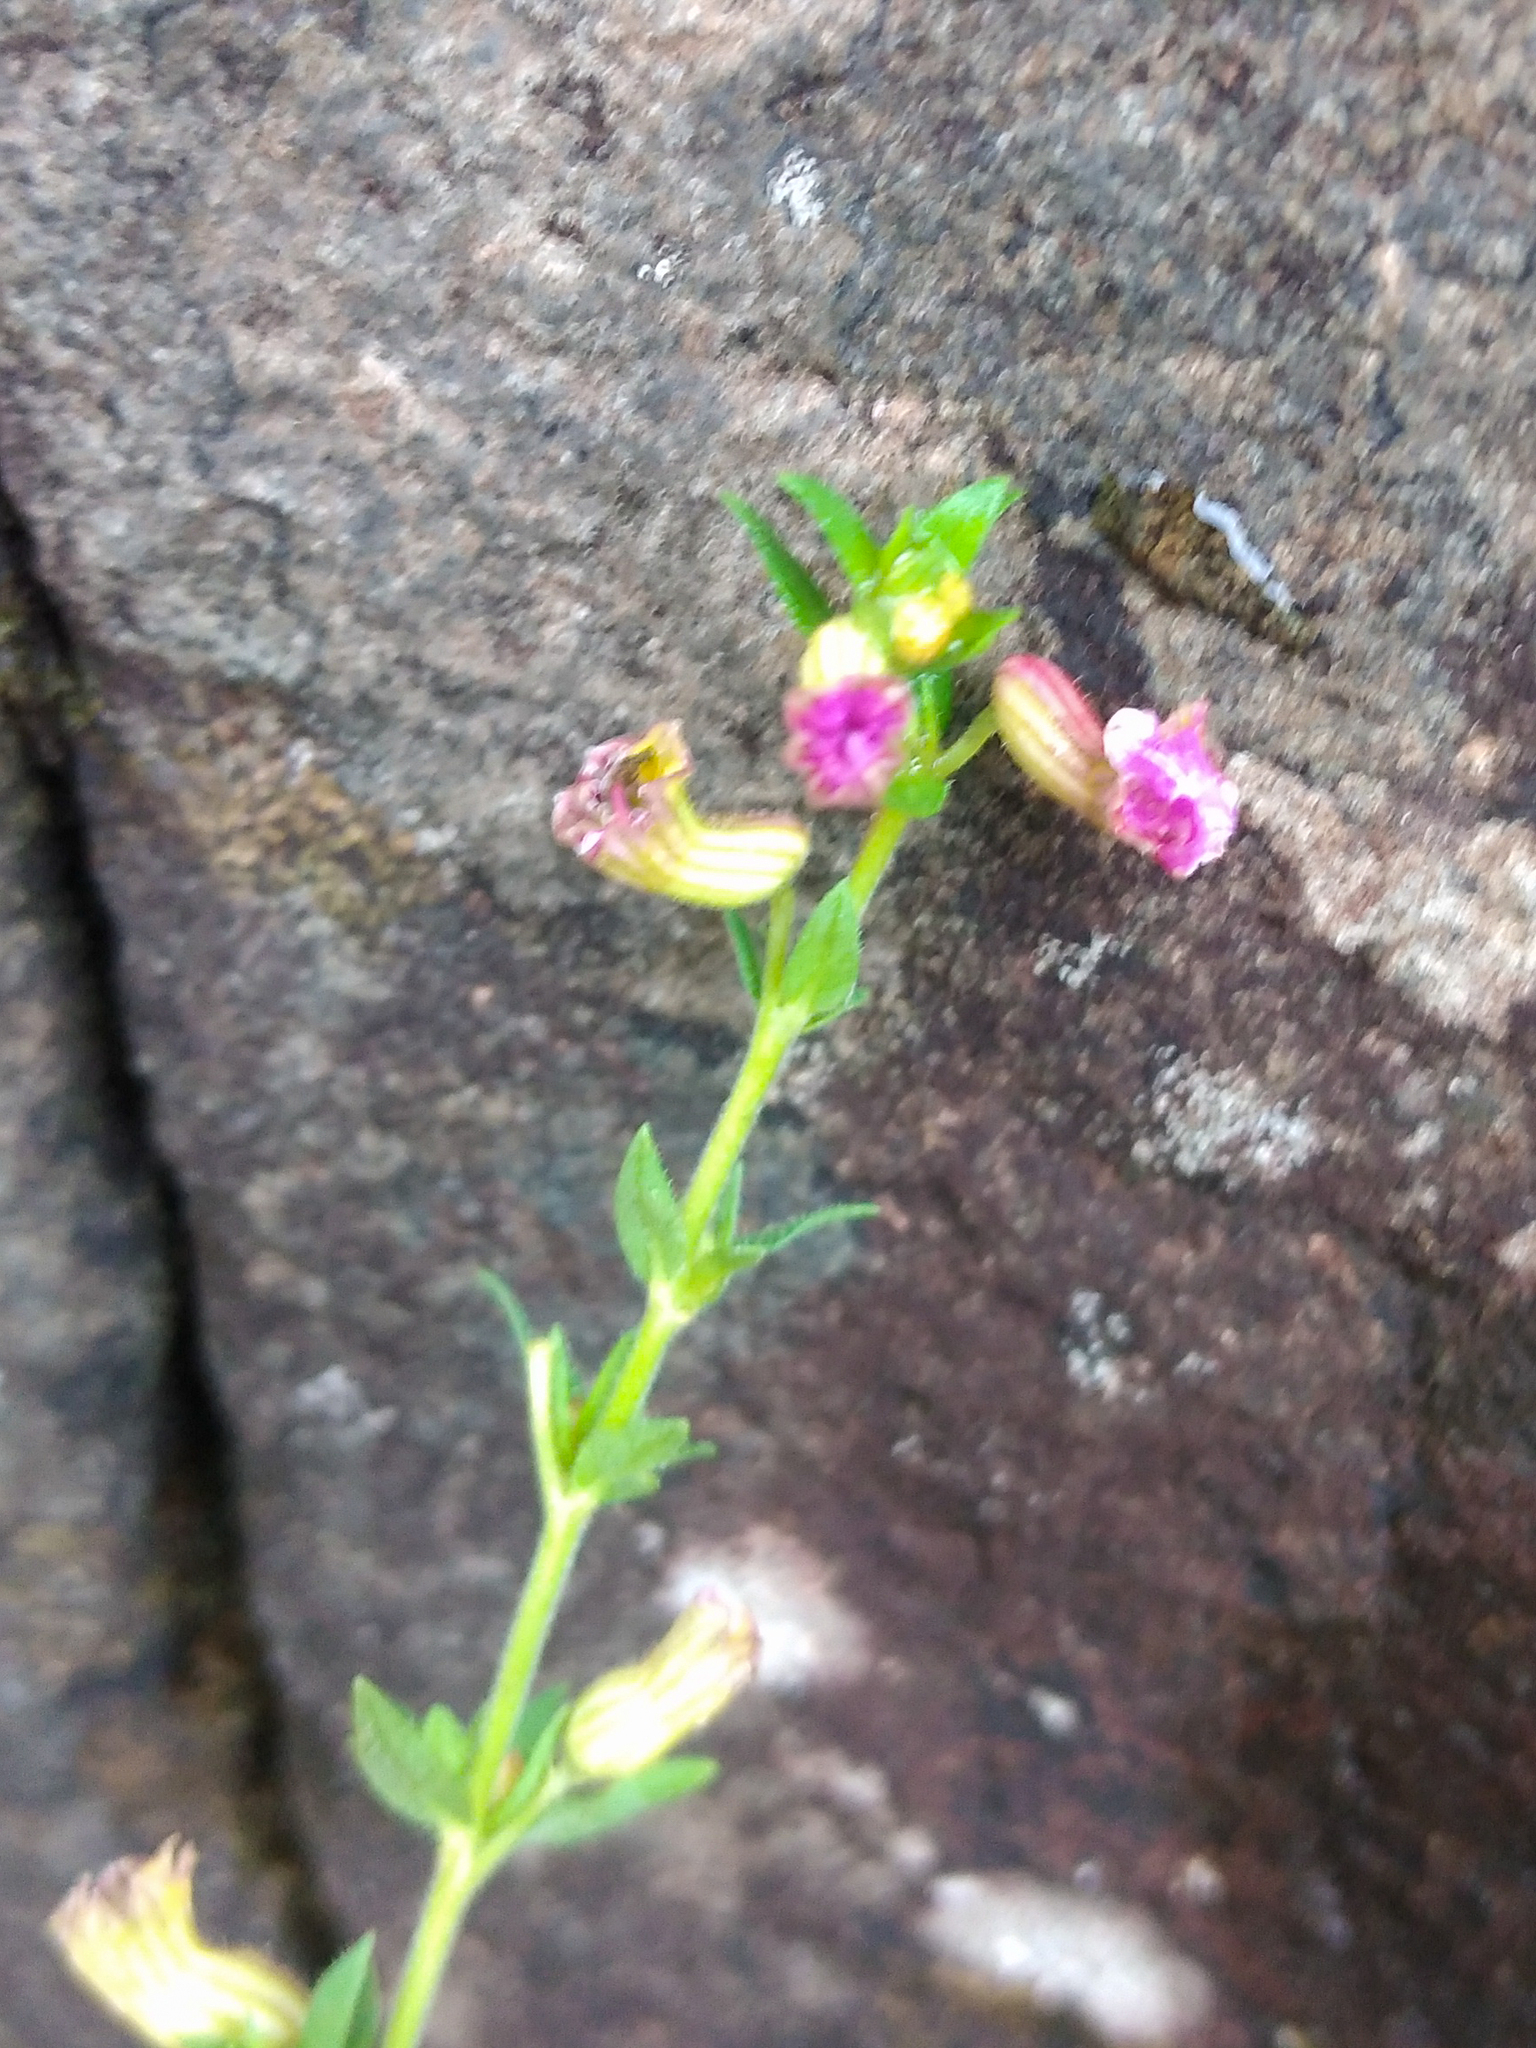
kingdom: Plantae
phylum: Tracheophyta
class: Magnoliopsida
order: Myrtales
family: Lythraceae
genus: Cuphea
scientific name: Cuphea glutinosa
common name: Sticky waxweed
